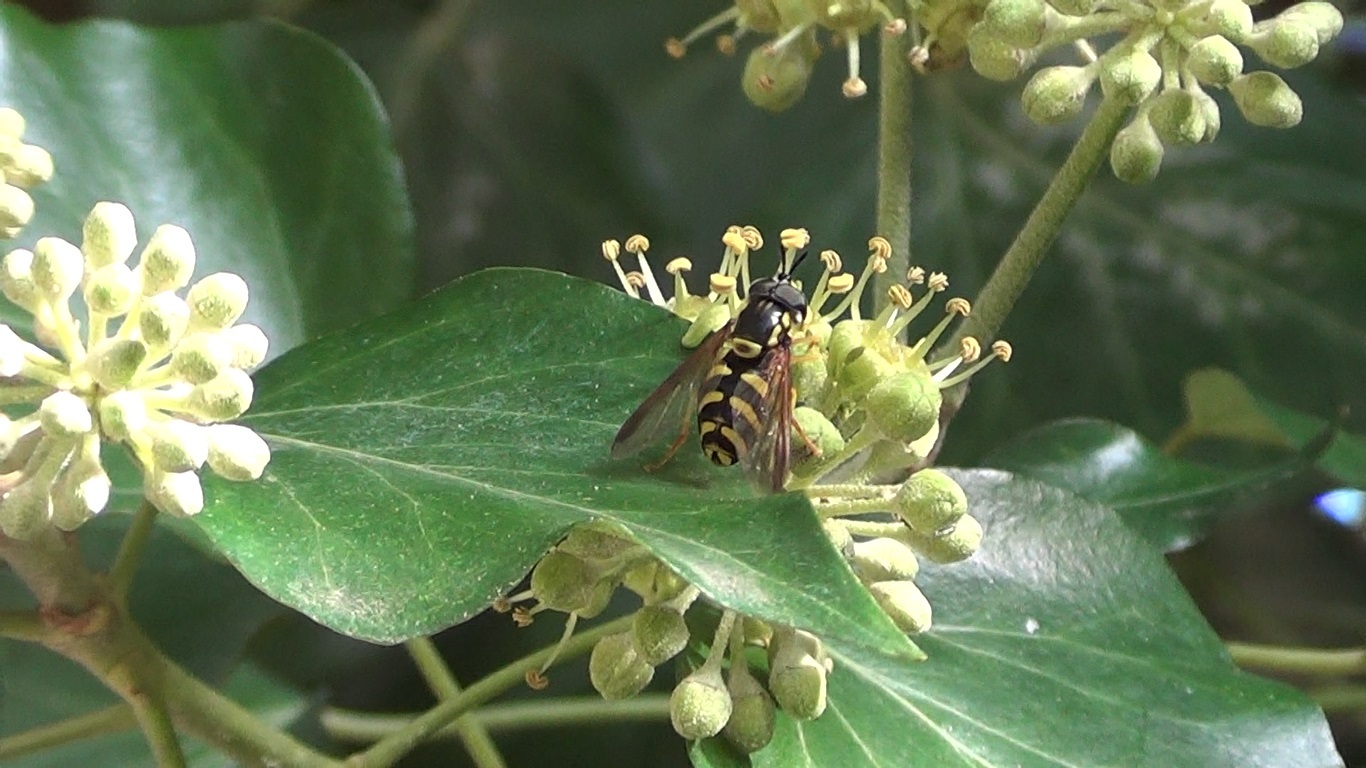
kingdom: Animalia
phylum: Arthropoda
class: Insecta
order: Diptera
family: Syrphidae
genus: Chrysotoxum
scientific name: Chrysotoxum intermedium
